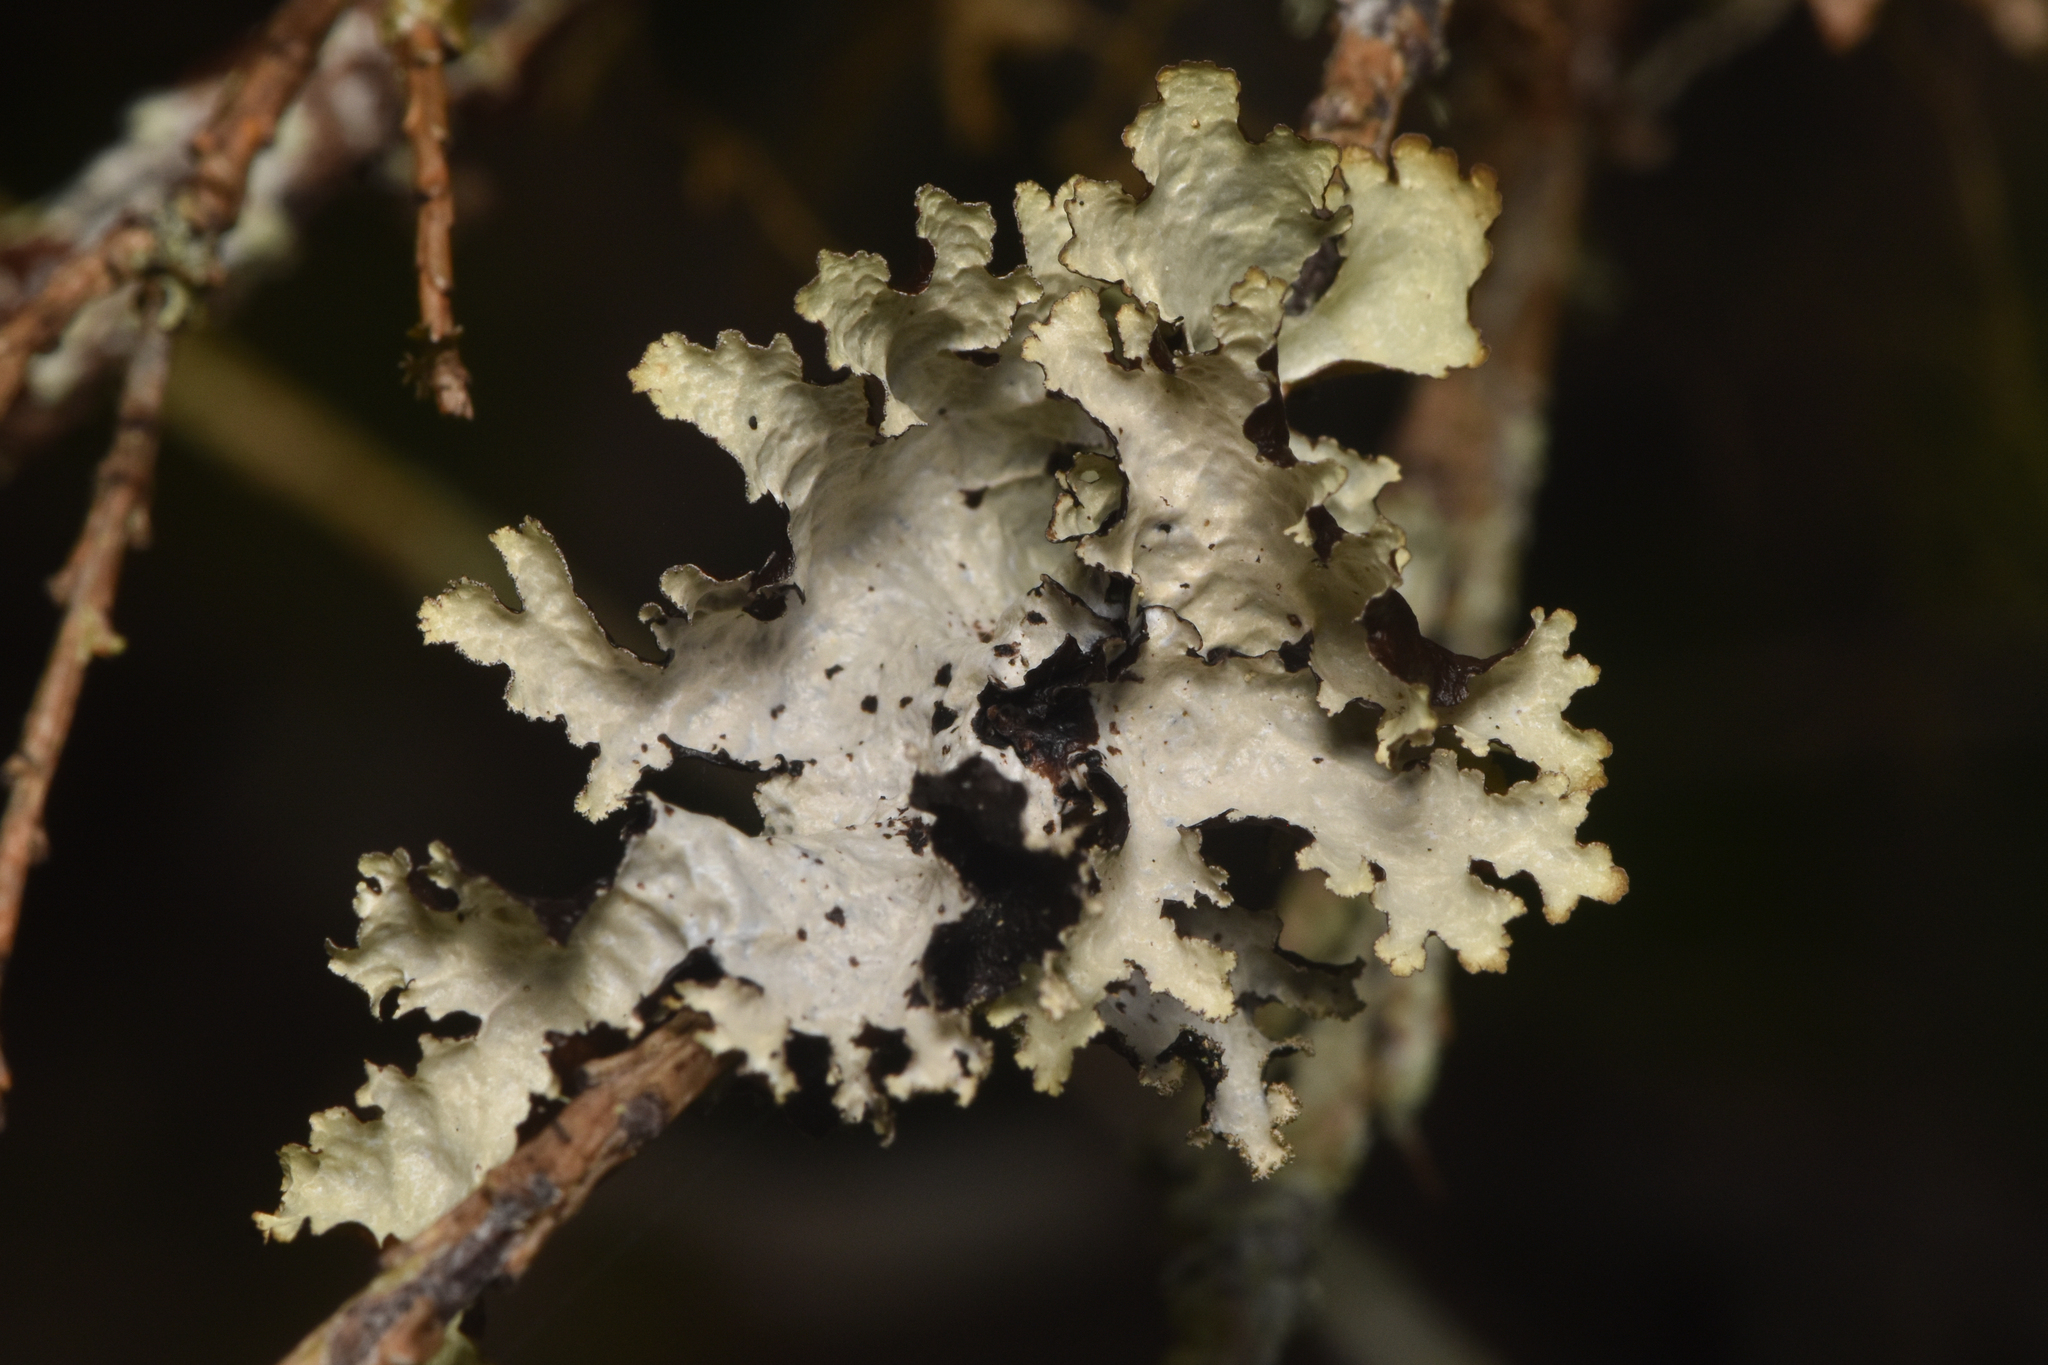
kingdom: Fungi
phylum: Ascomycota
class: Lecanoromycetes
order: Lecanorales
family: Parmeliaceae
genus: Platismatia
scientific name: Platismatia glauca
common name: Varied rag lichen
